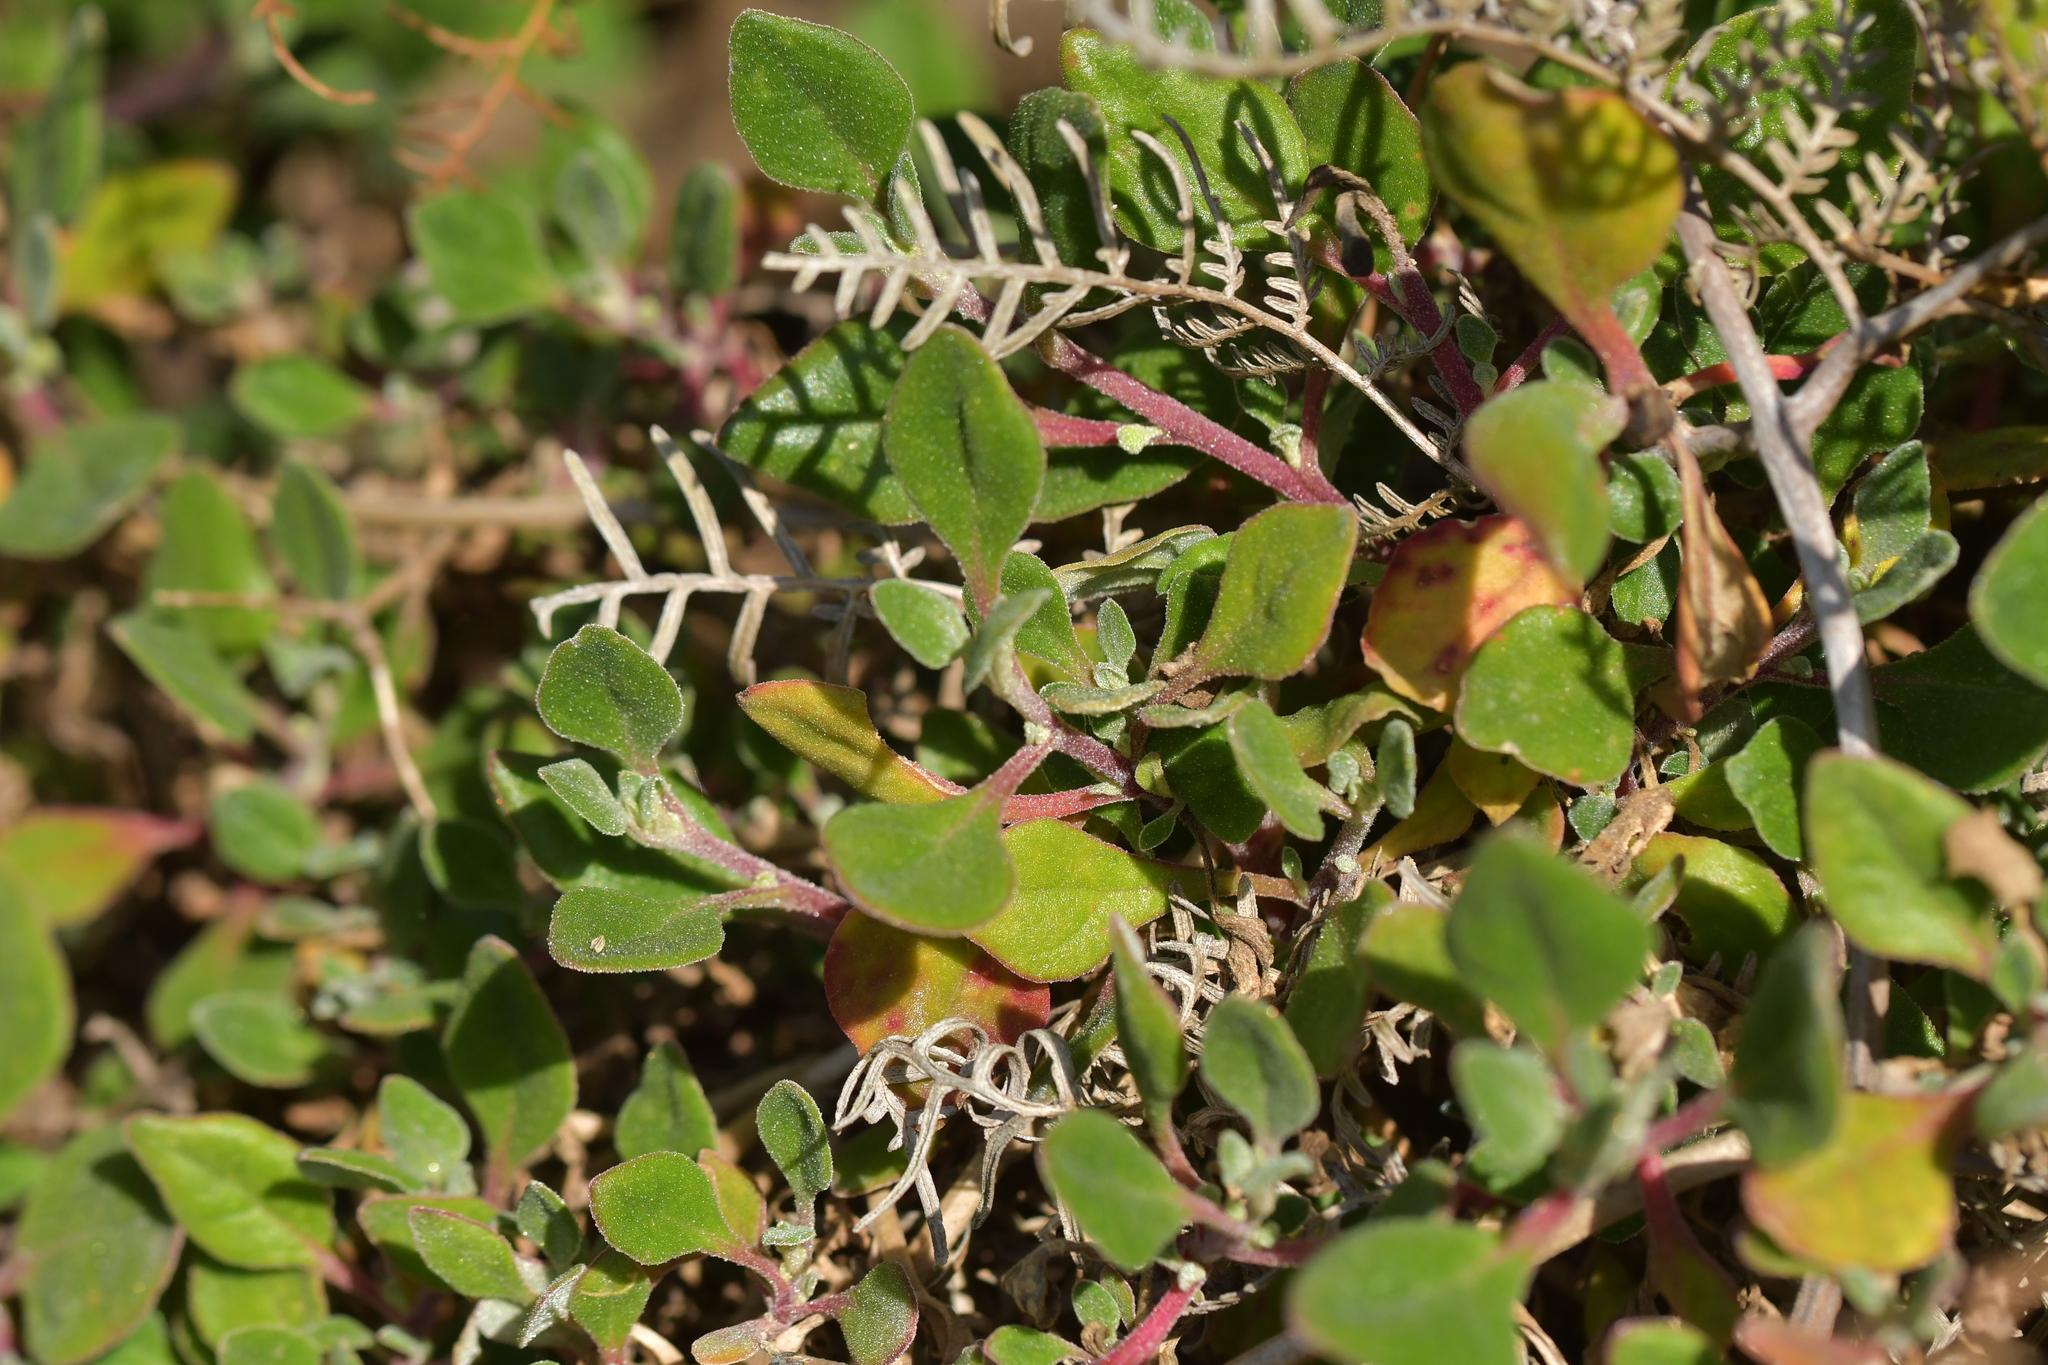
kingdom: Plantae
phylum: Tracheophyta
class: Magnoliopsida
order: Caryophyllales
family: Aizoaceae
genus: Tetragonia
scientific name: Tetragonia implexicoma
